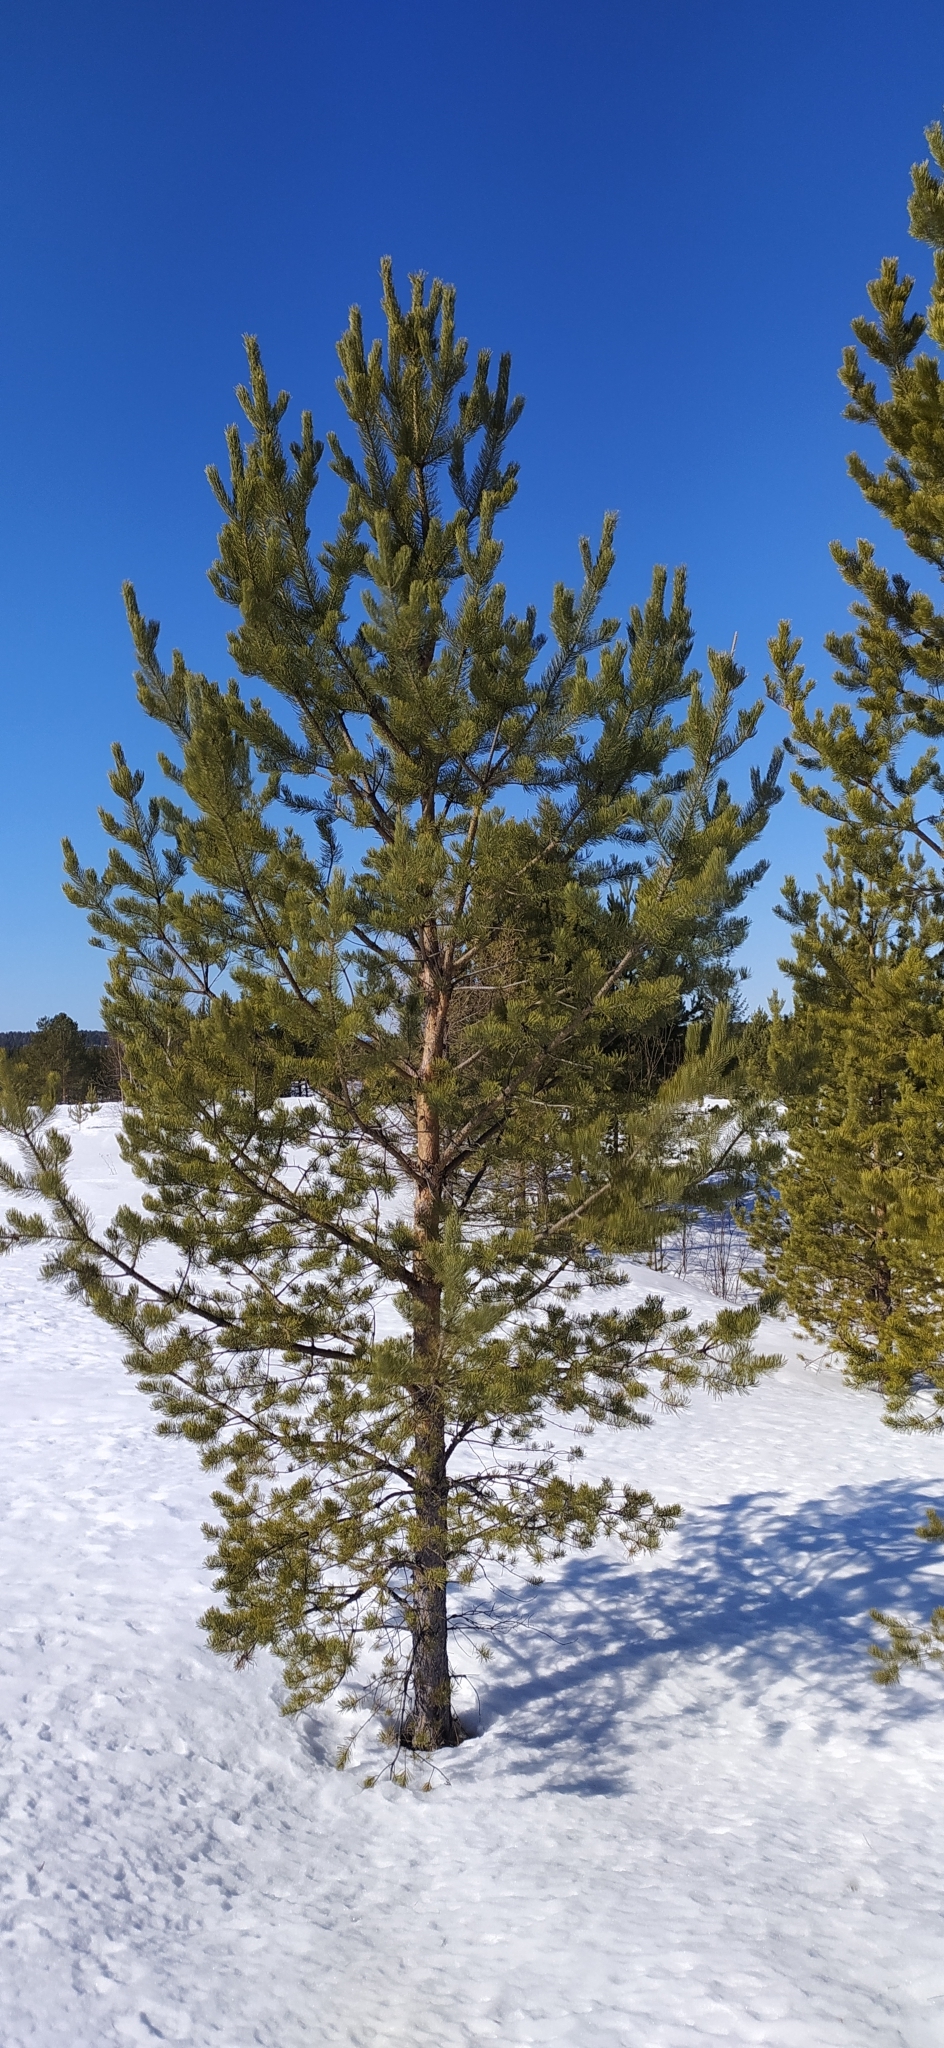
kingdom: Plantae
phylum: Tracheophyta
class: Pinopsida
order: Pinales
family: Pinaceae
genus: Pinus
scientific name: Pinus sylvestris
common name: Scots pine
